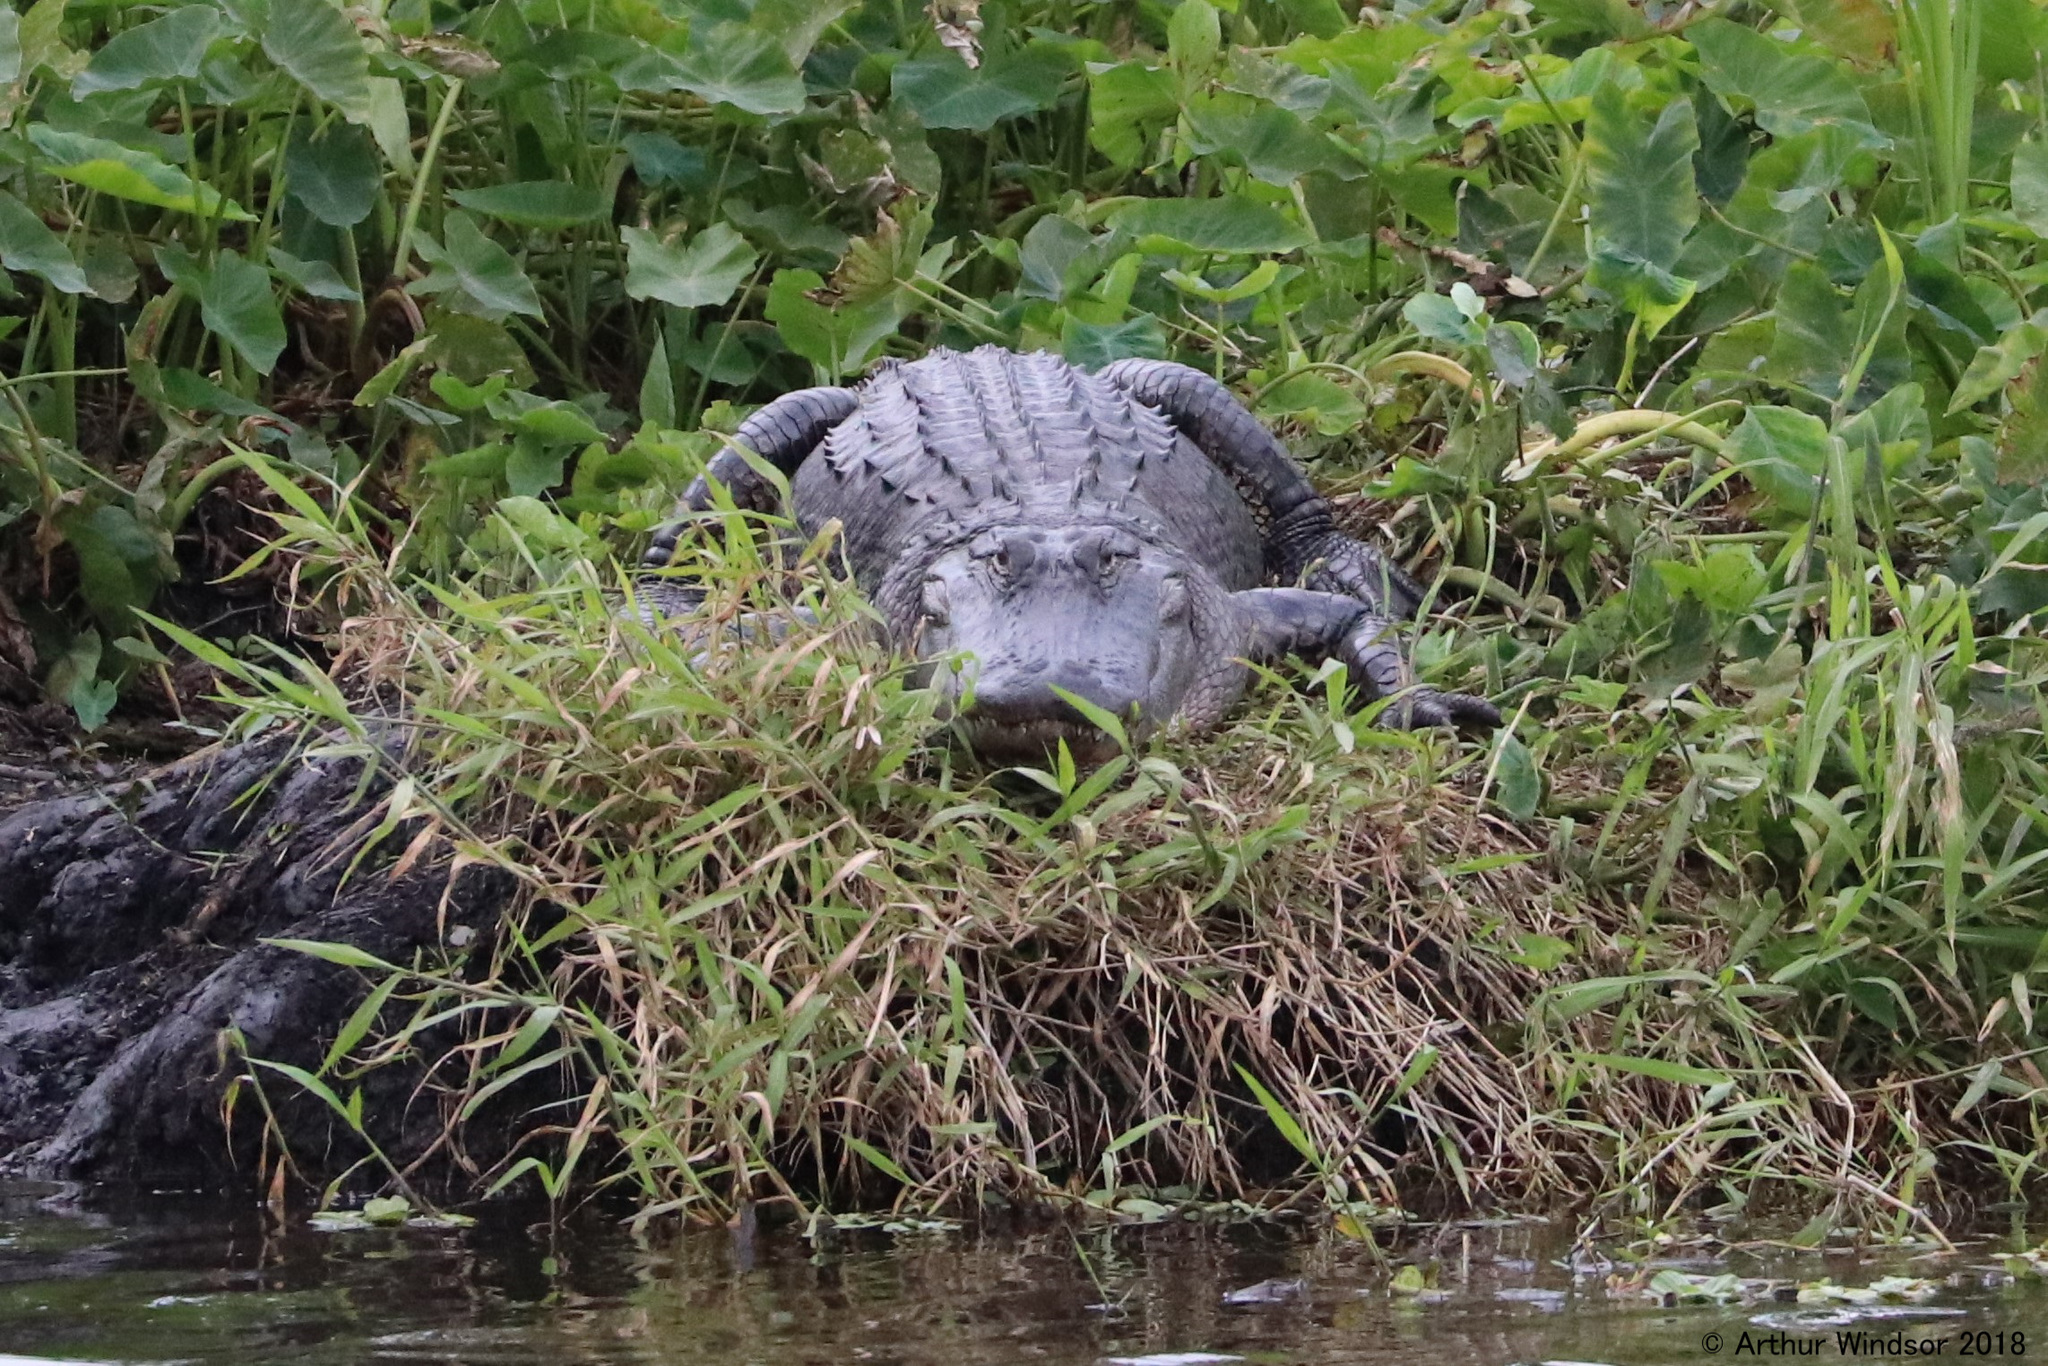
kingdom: Animalia
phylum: Chordata
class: Crocodylia
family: Alligatoridae
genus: Alligator
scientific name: Alligator mississippiensis
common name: American alligator
